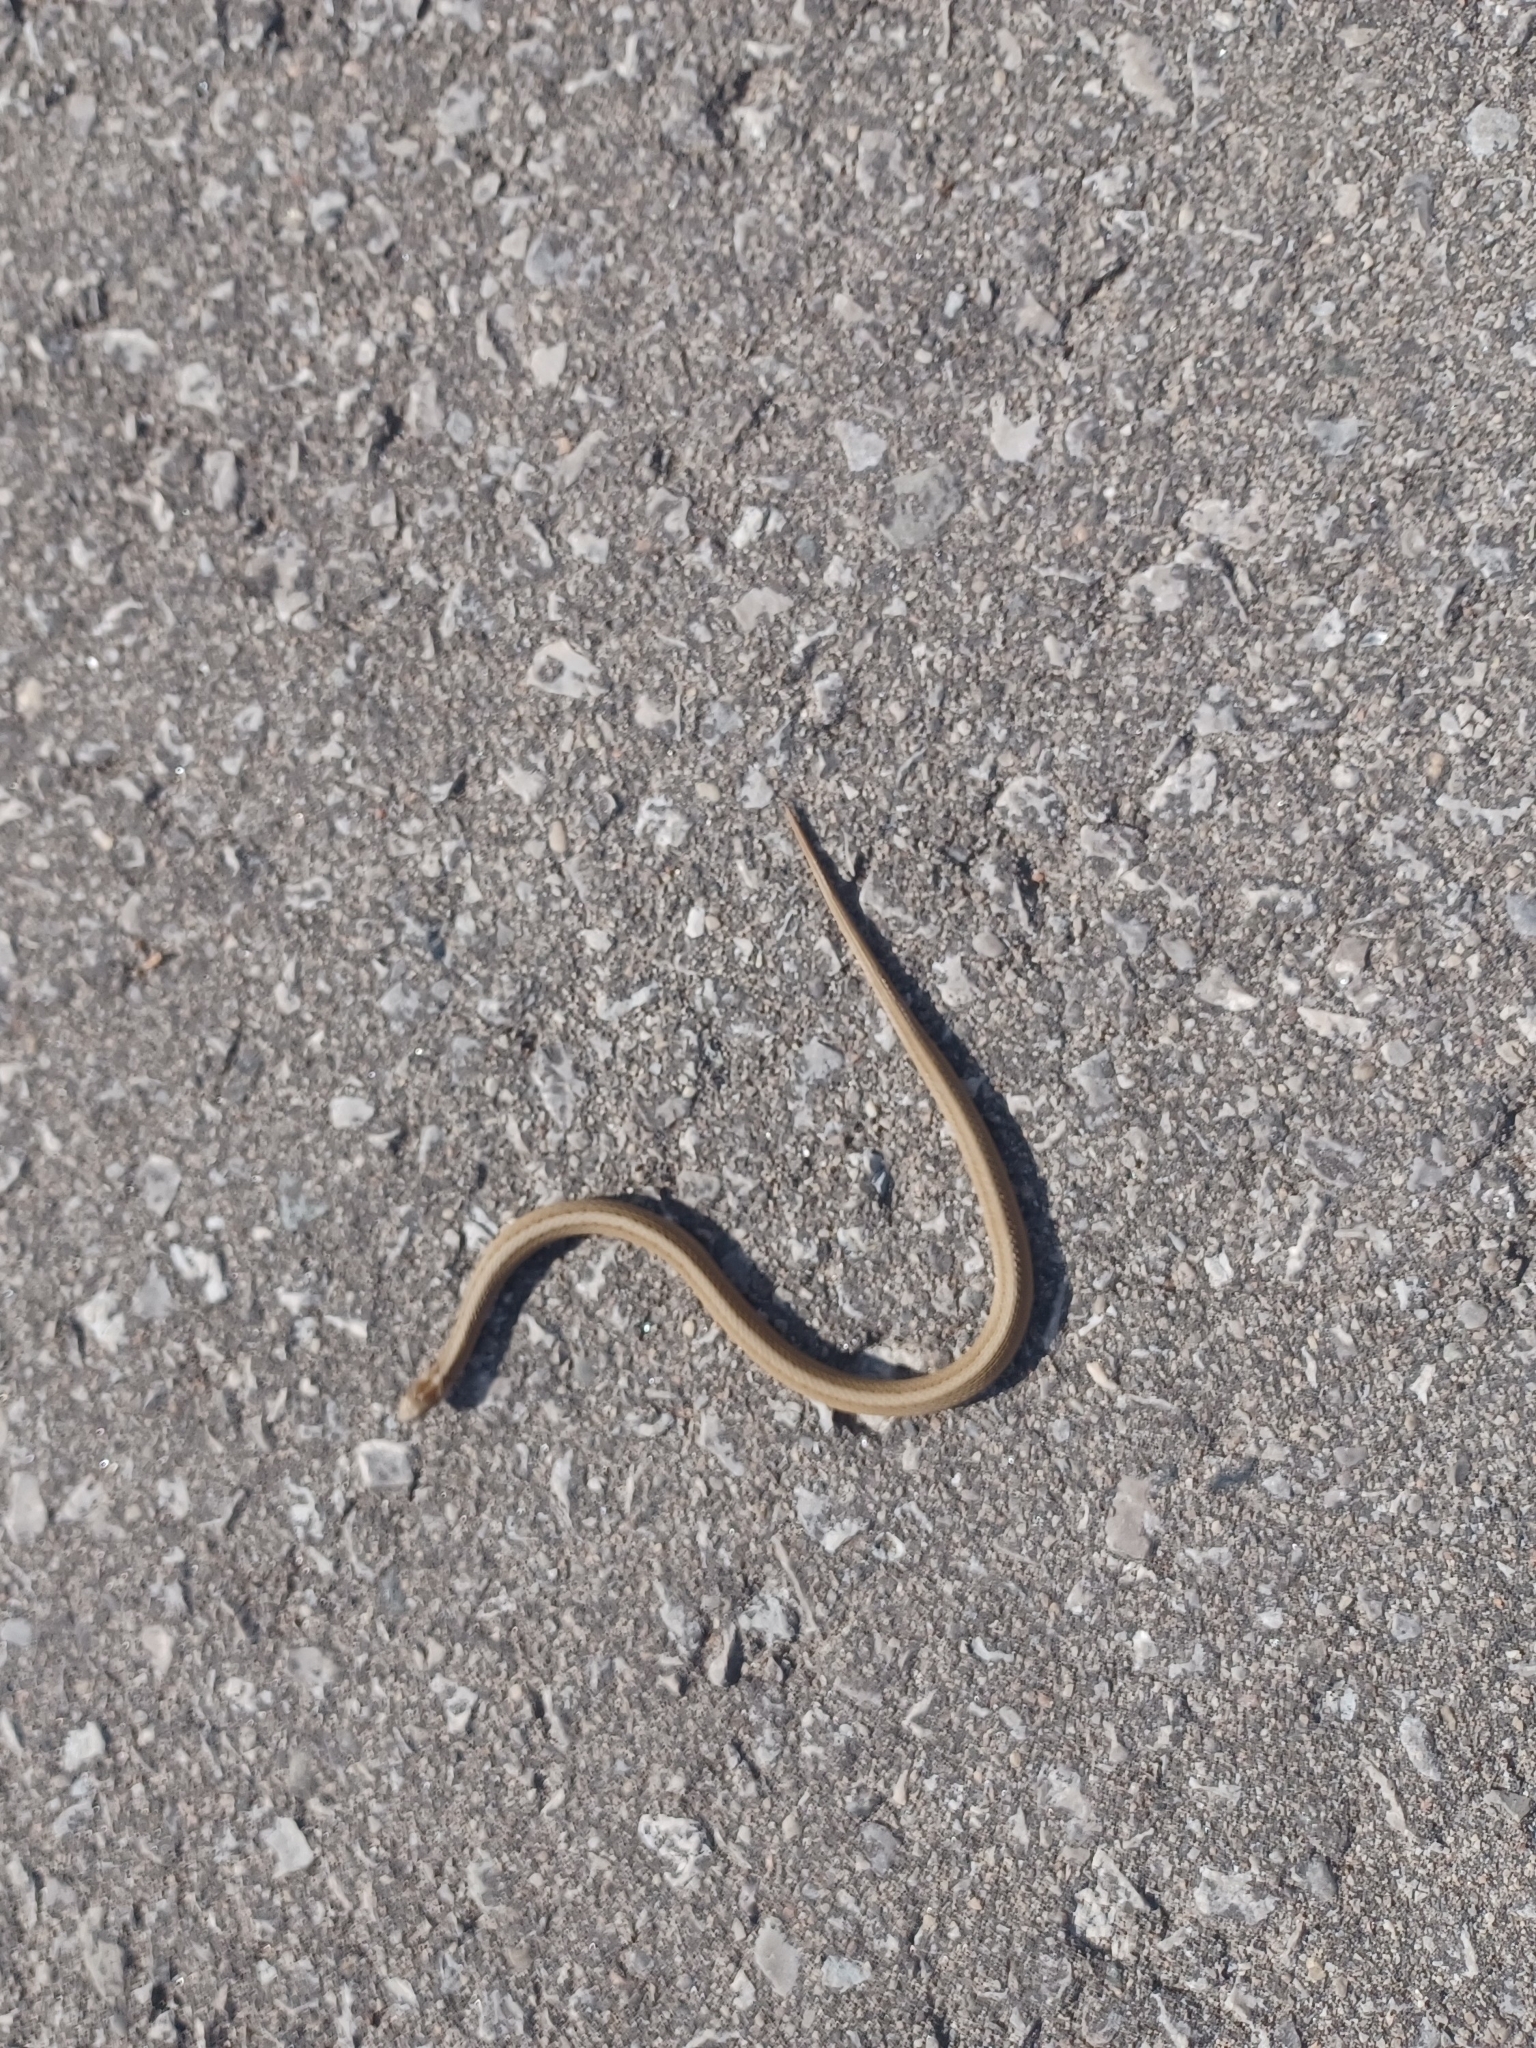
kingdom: Animalia
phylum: Chordata
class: Squamata
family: Colubridae
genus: Storeria
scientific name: Storeria dekayi
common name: (dekay’s) brown snake
